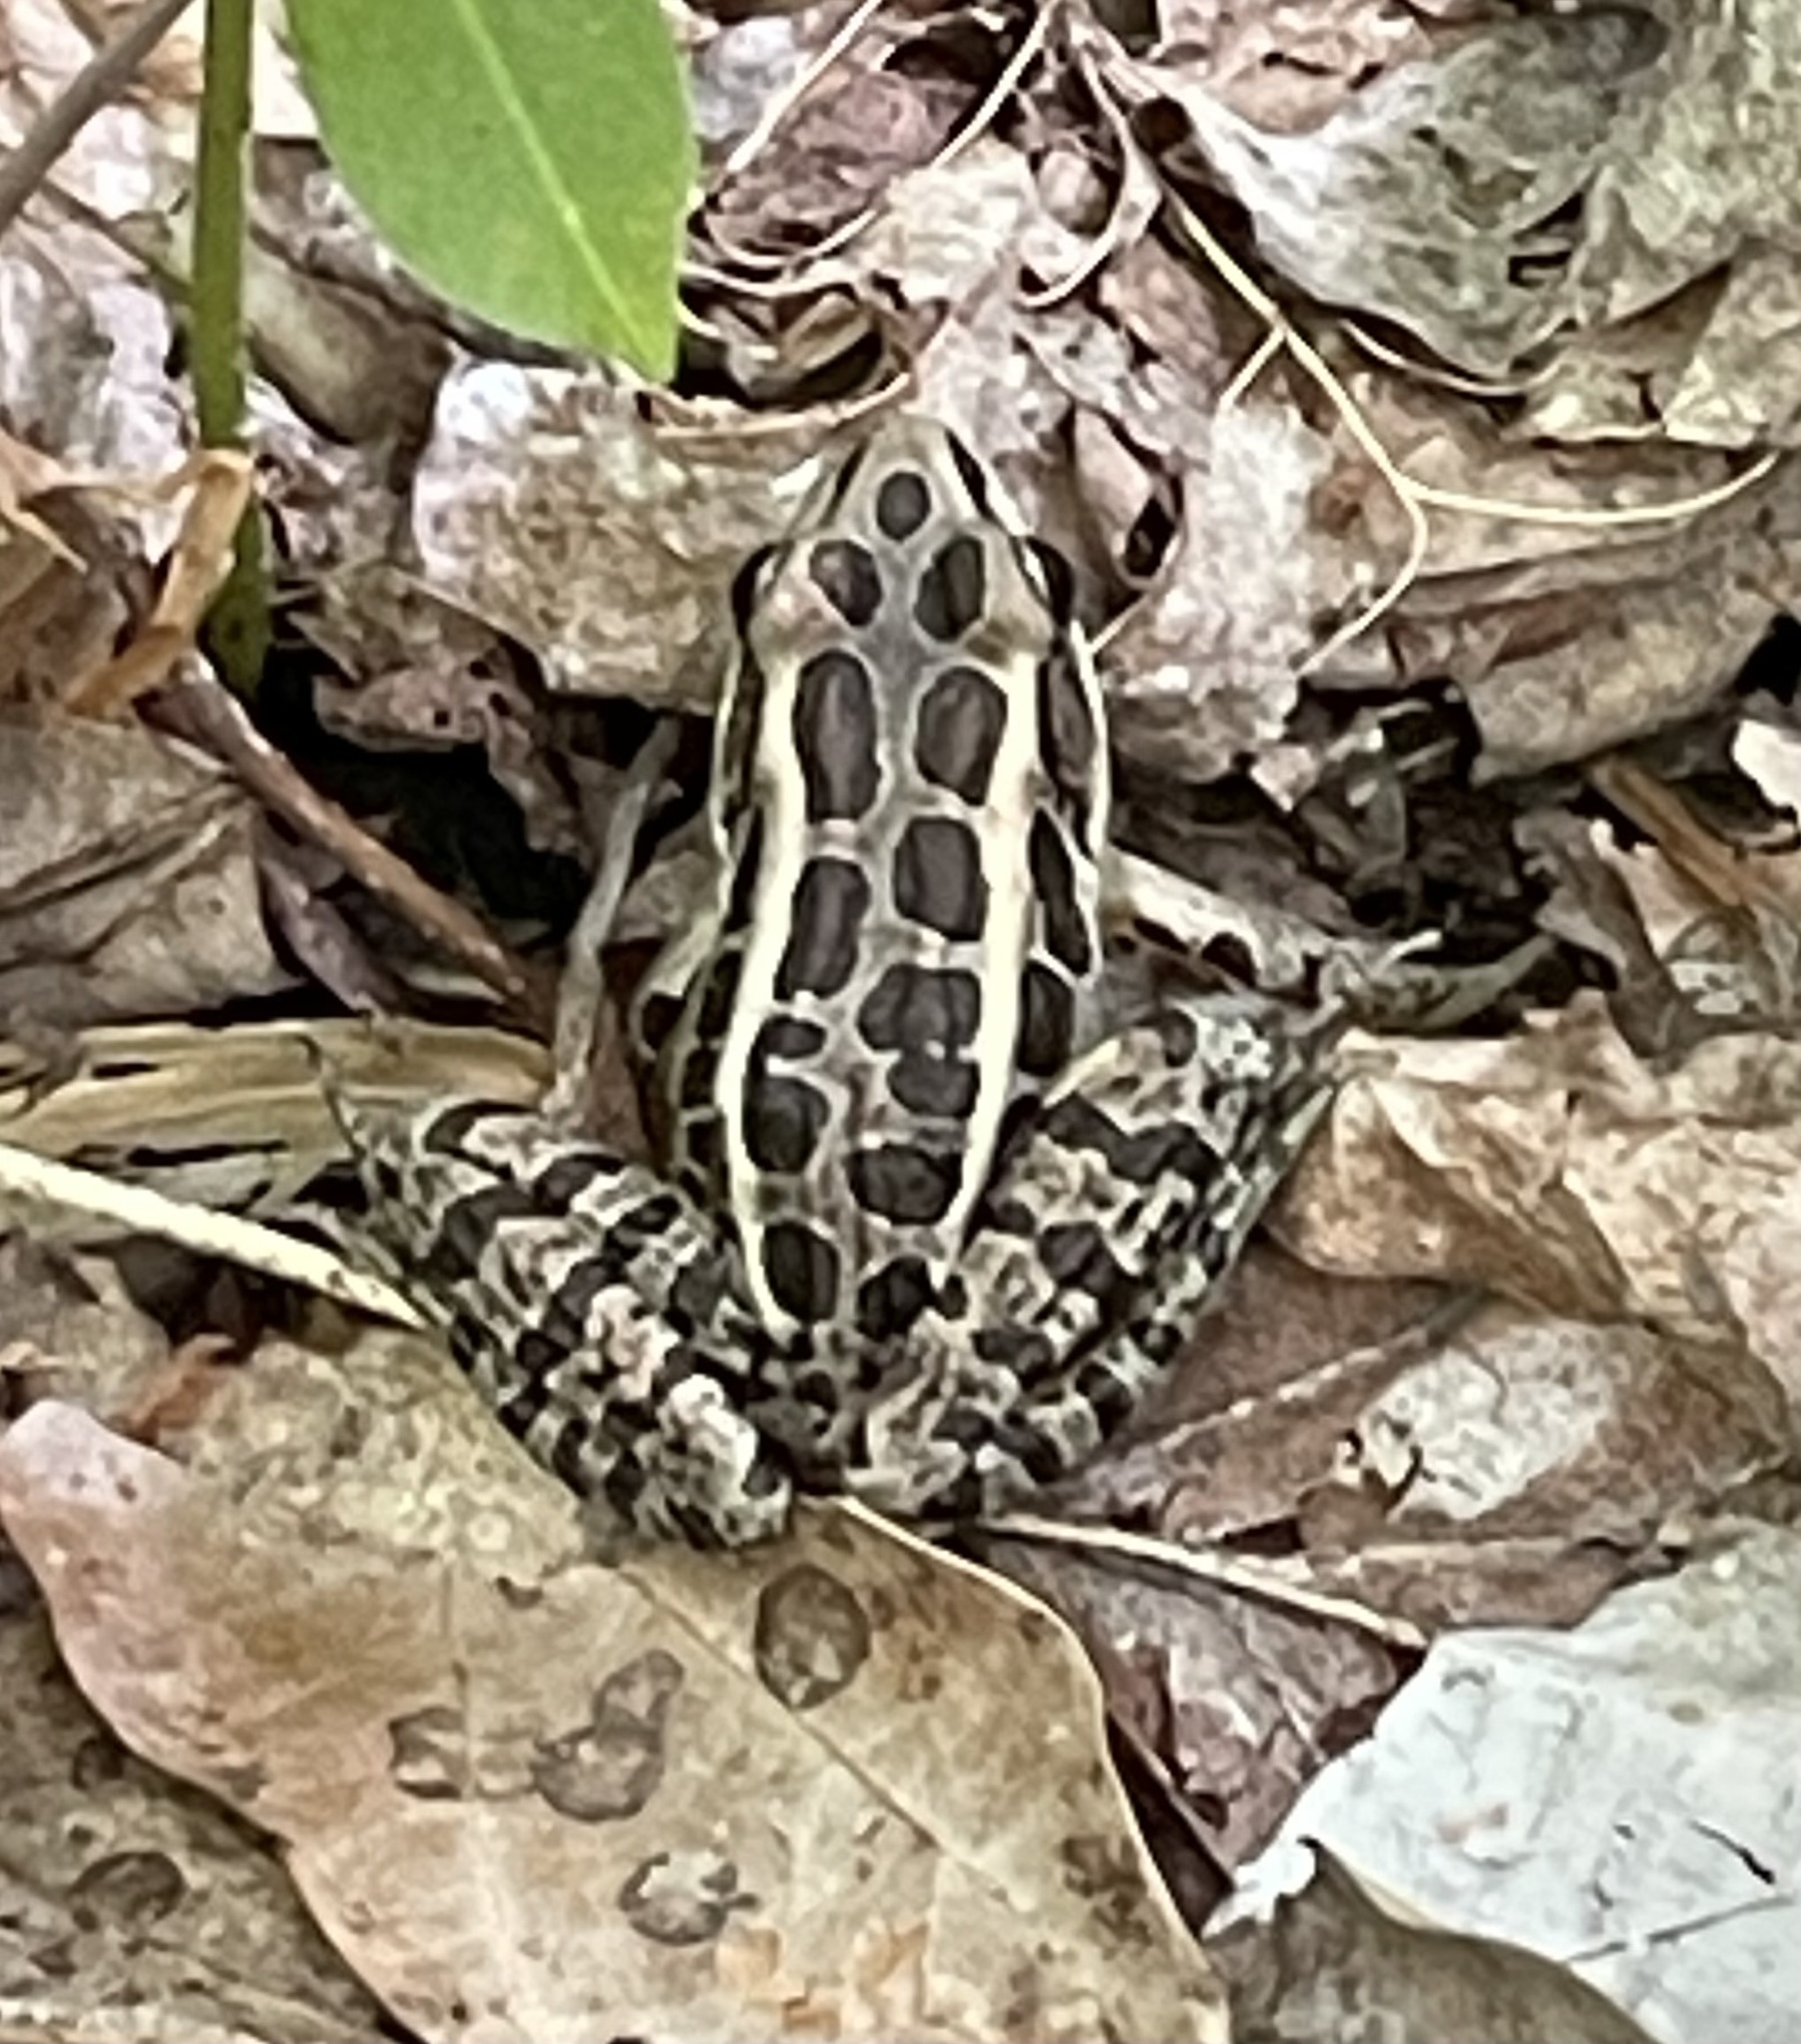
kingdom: Animalia
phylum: Chordata
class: Amphibia
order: Anura
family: Ranidae
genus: Lithobates
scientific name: Lithobates palustris
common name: Pickerel frog
